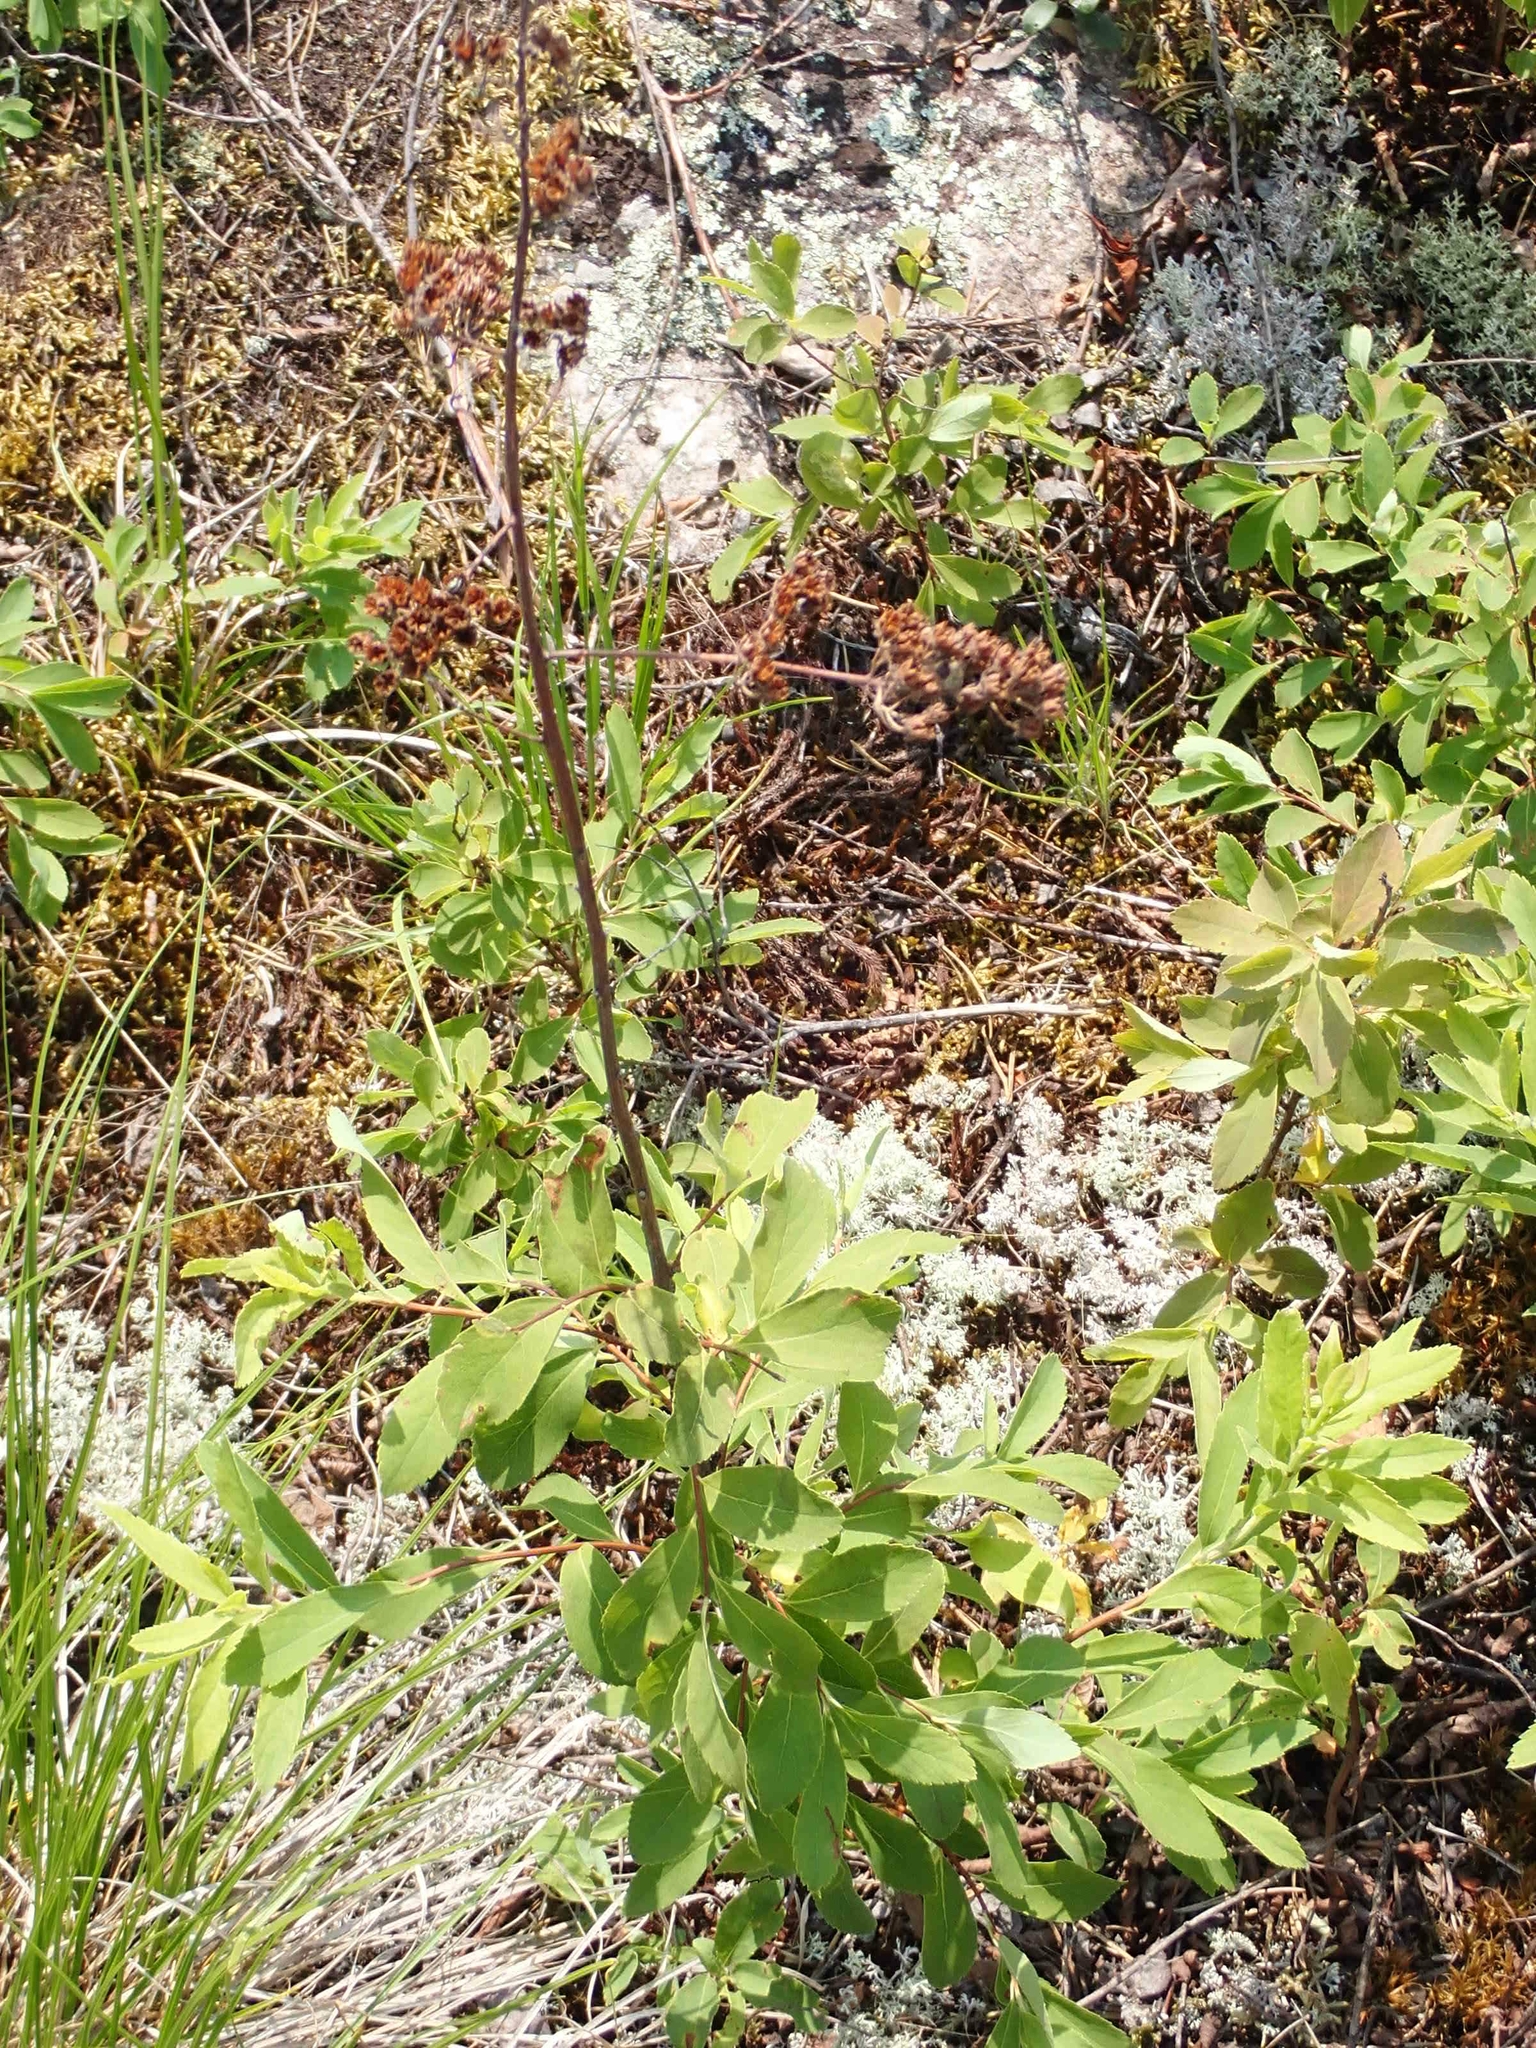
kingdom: Plantae
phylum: Tracheophyta
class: Magnoliopsida
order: Rosales
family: Rosaceae
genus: Spiraea
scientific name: Spiraea alba
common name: Pale bridewort
